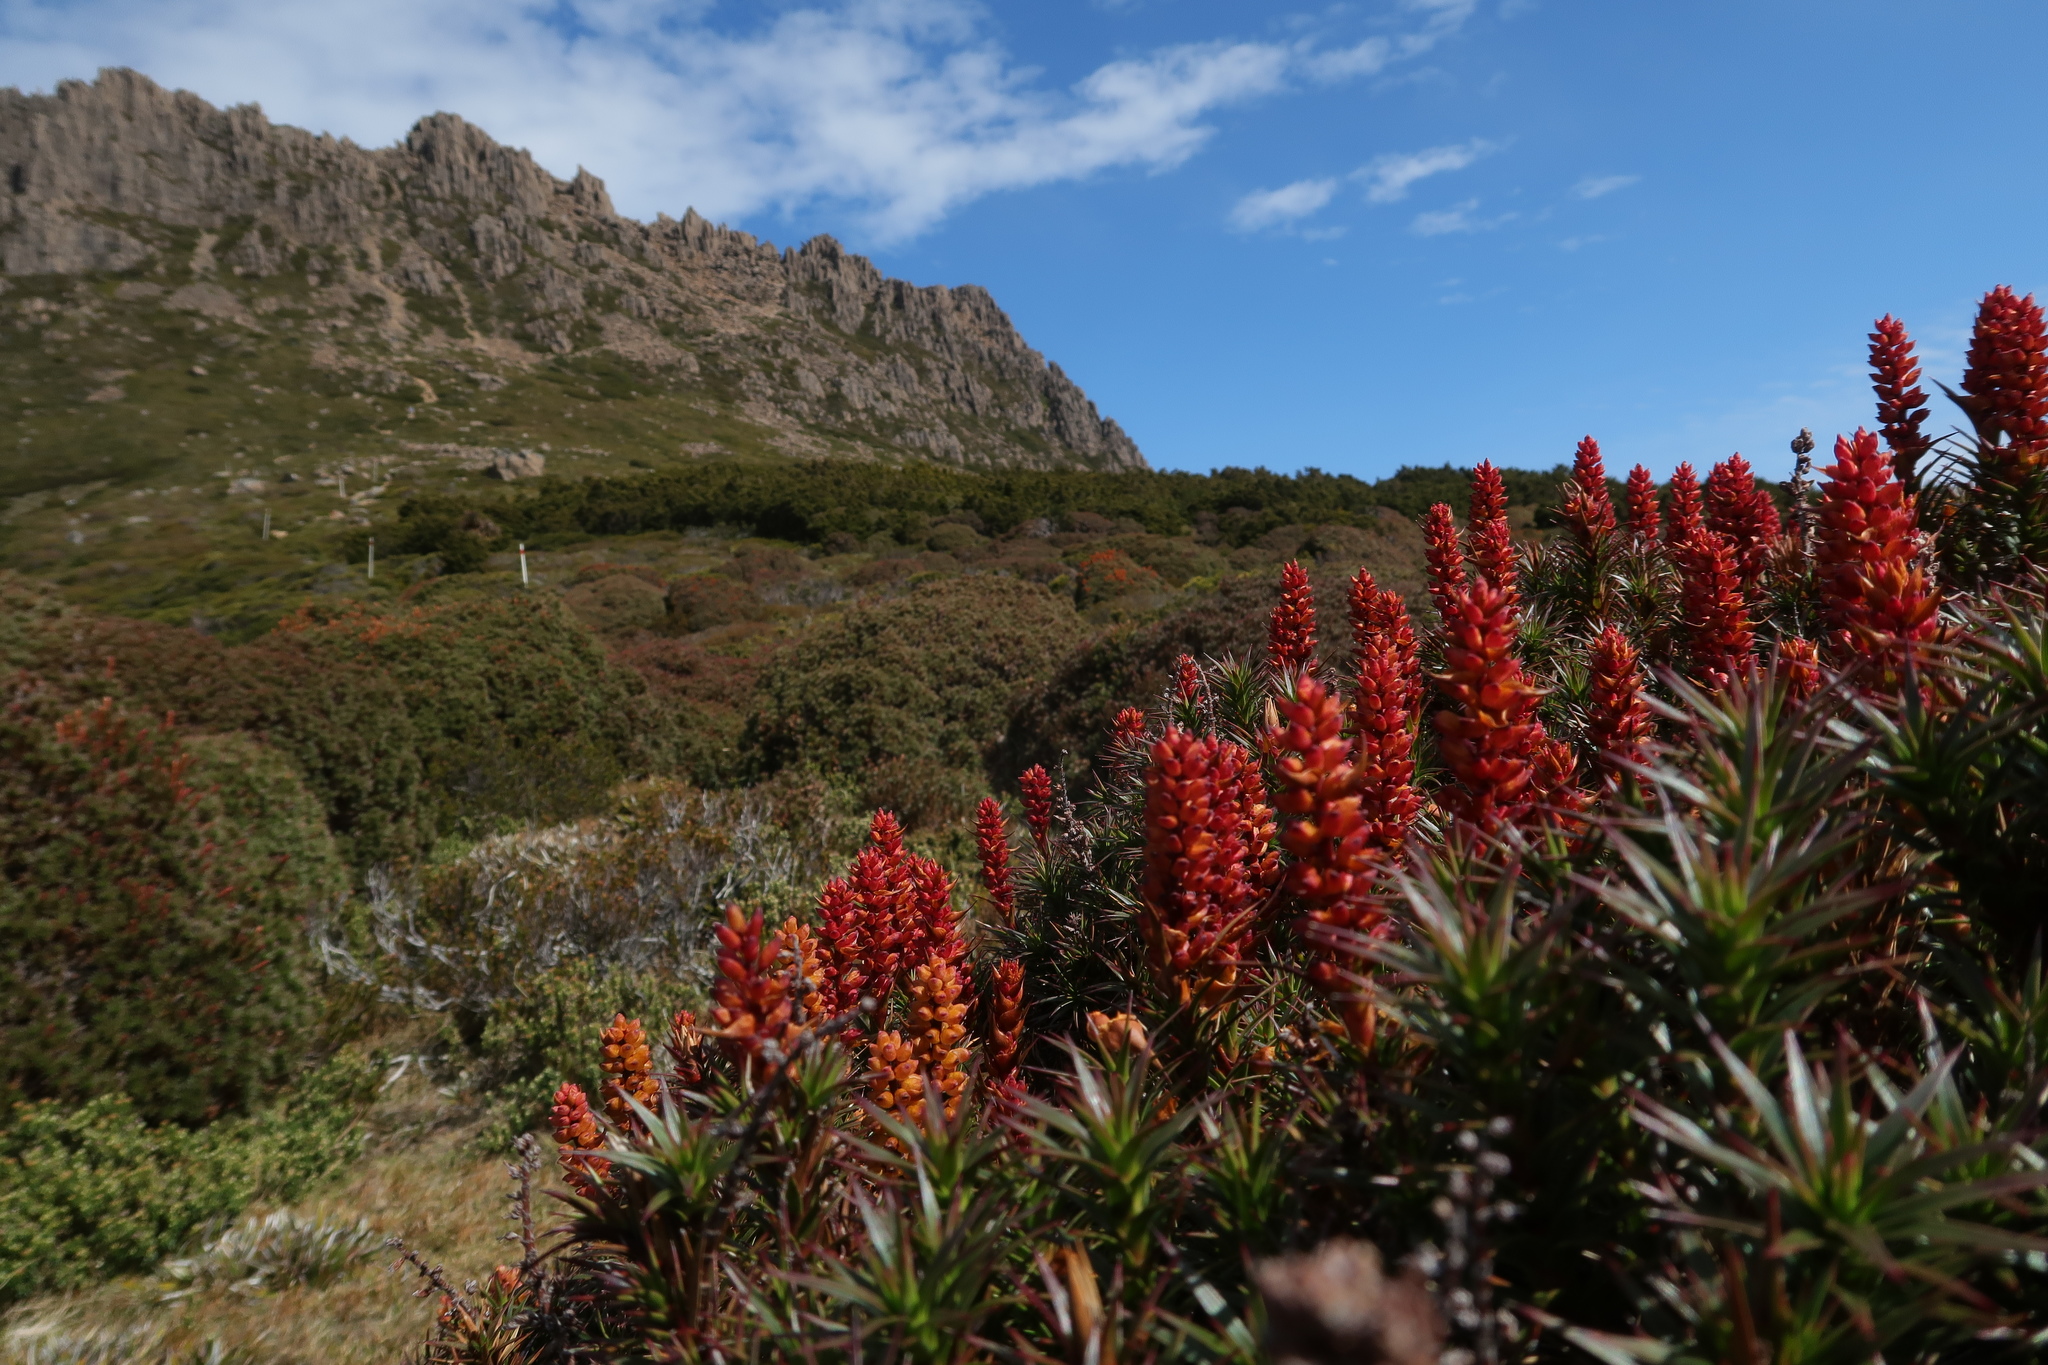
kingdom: Plantae
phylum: Tracheophyta
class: Magnoliopsida
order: Ericales
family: Ericaceae
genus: Dracophyllum
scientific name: Dracophyllum persistentifolium
